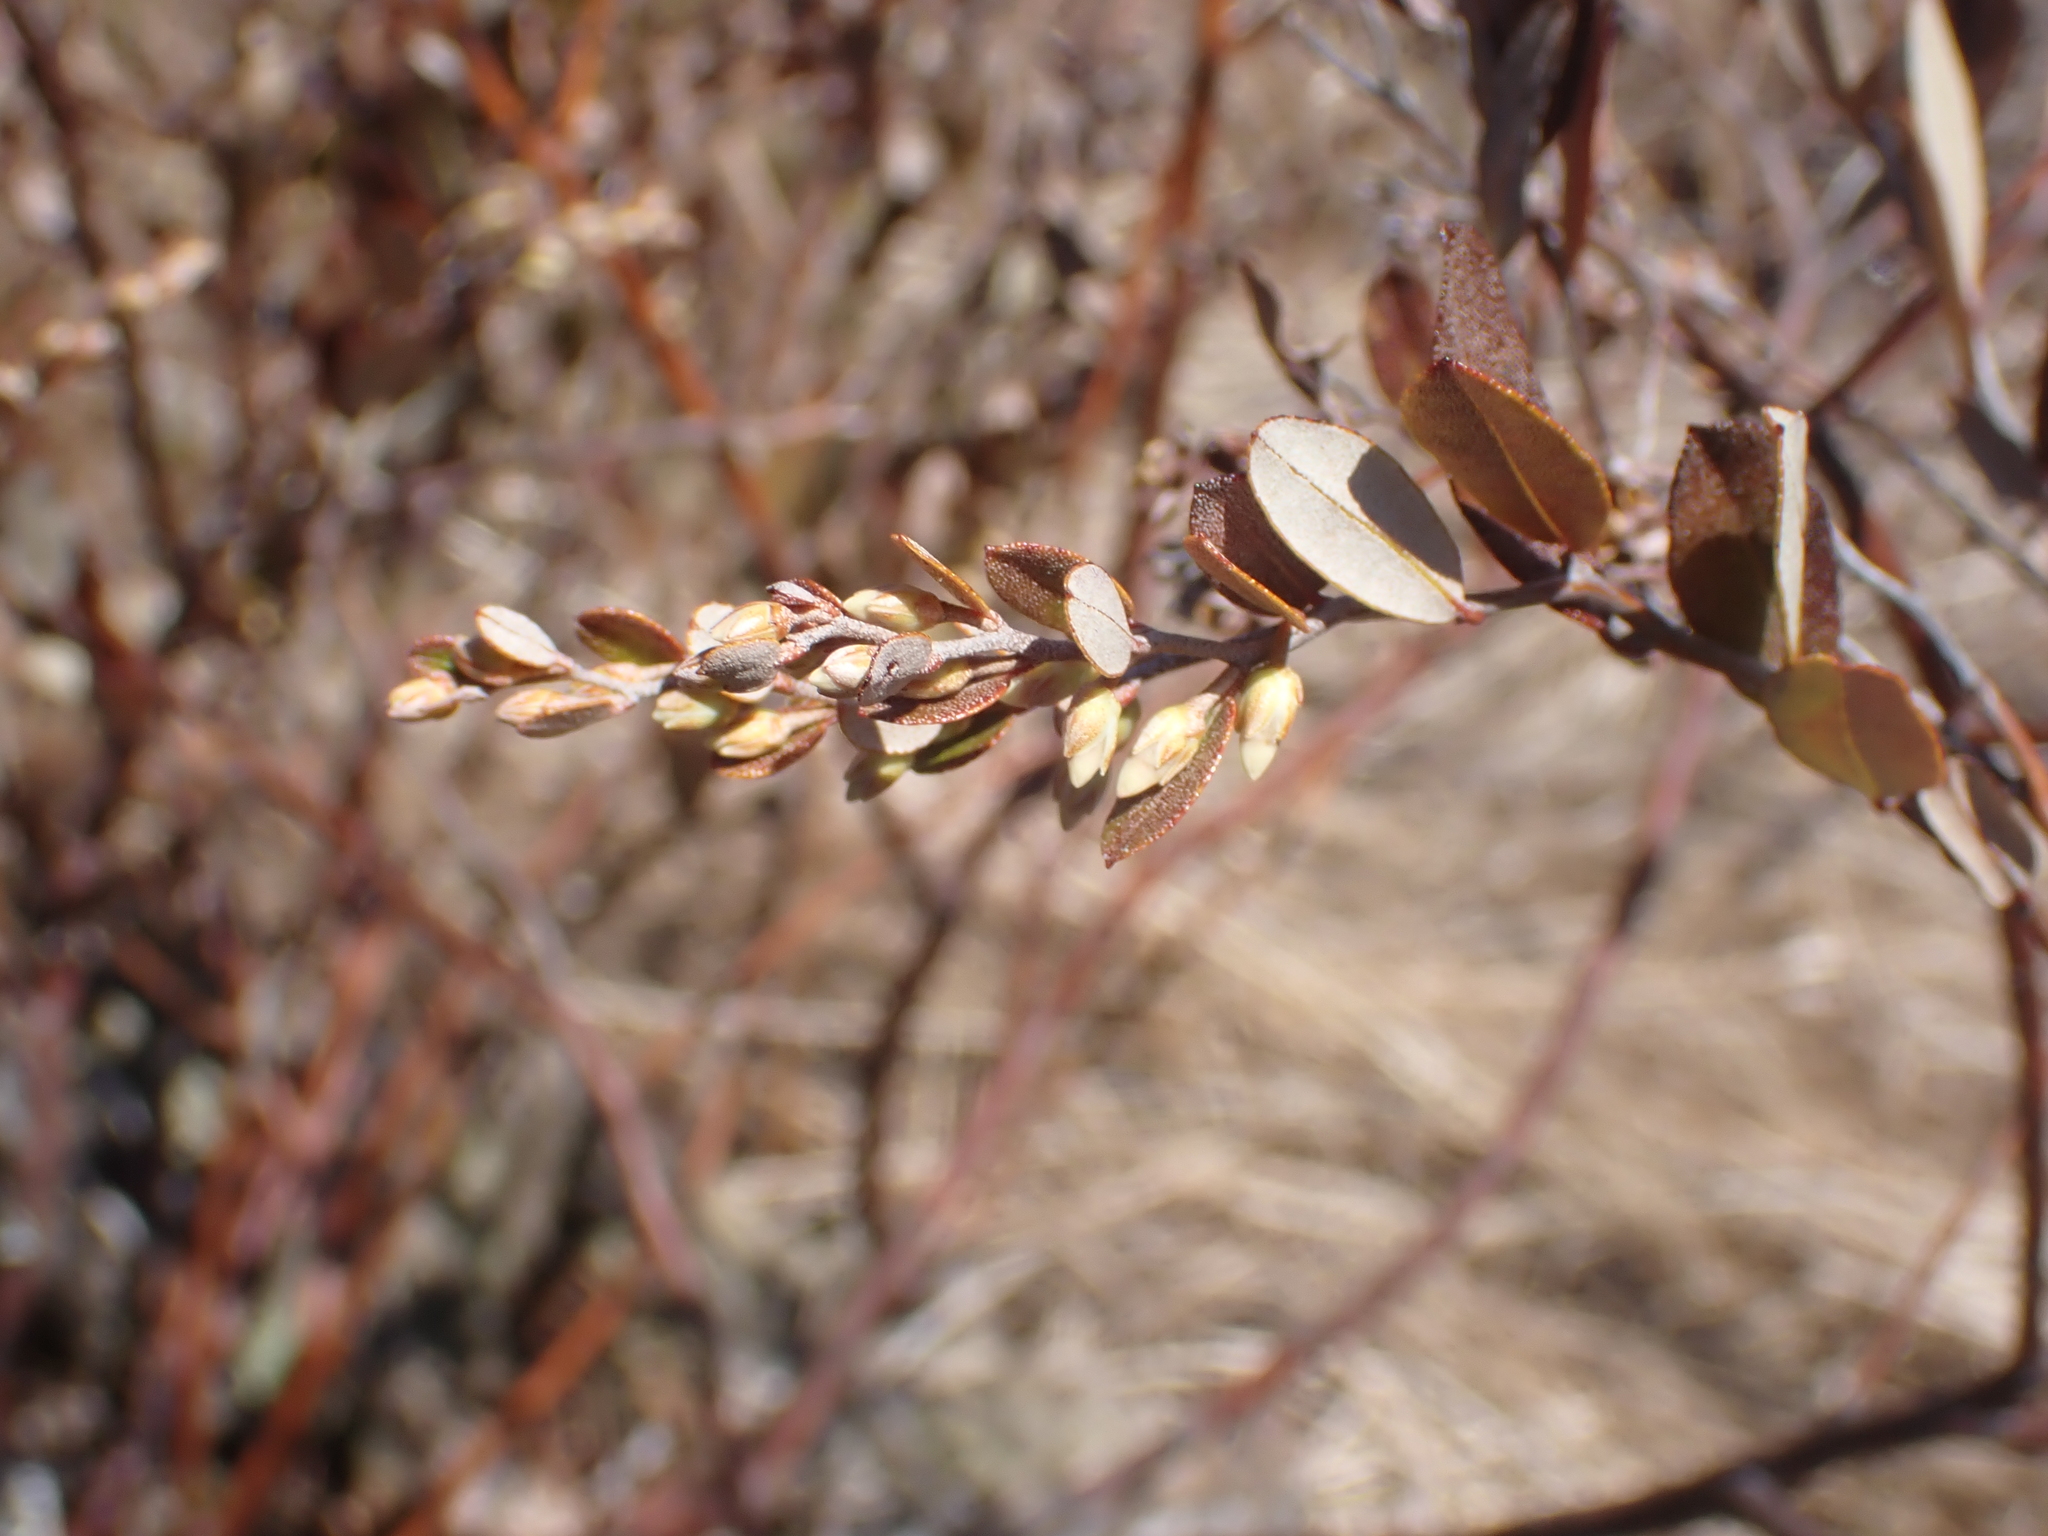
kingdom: Plantae
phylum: Tracheophyta
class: Magnoliopsida
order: Ericales
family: Ericaceae
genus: Chamaedaphne
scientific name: Chamaedaphne calyculata
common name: Leatherleaf
